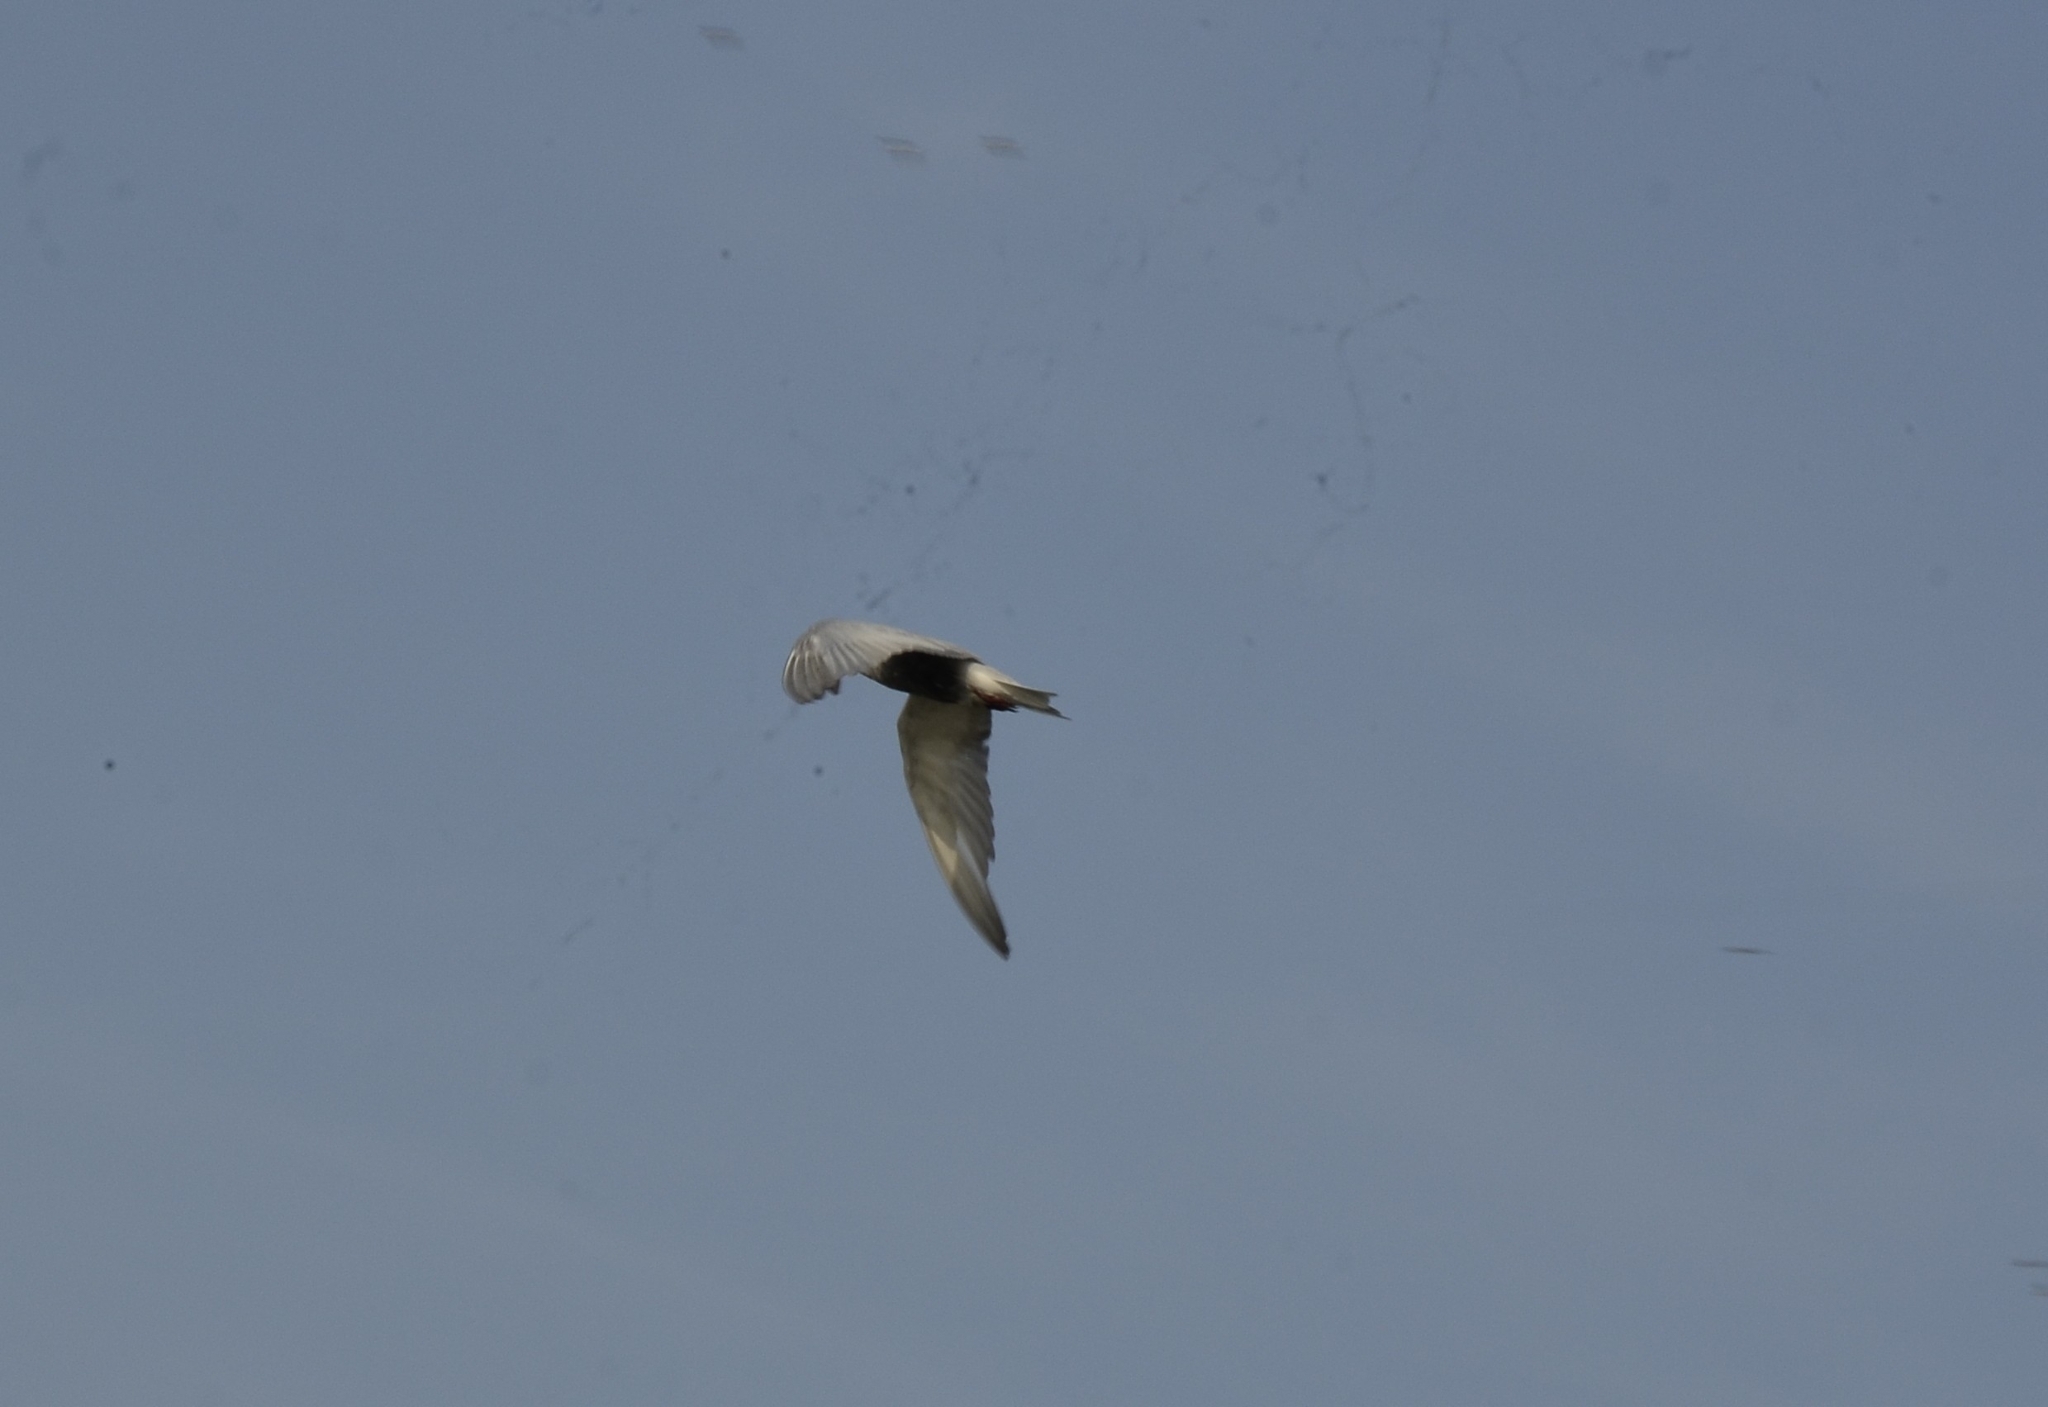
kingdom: Animalia
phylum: Chordata
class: Aves
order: Charadriiformes
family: Laridae
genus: Chlidonias
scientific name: Chlidonias hybrida
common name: Whiskered tern
